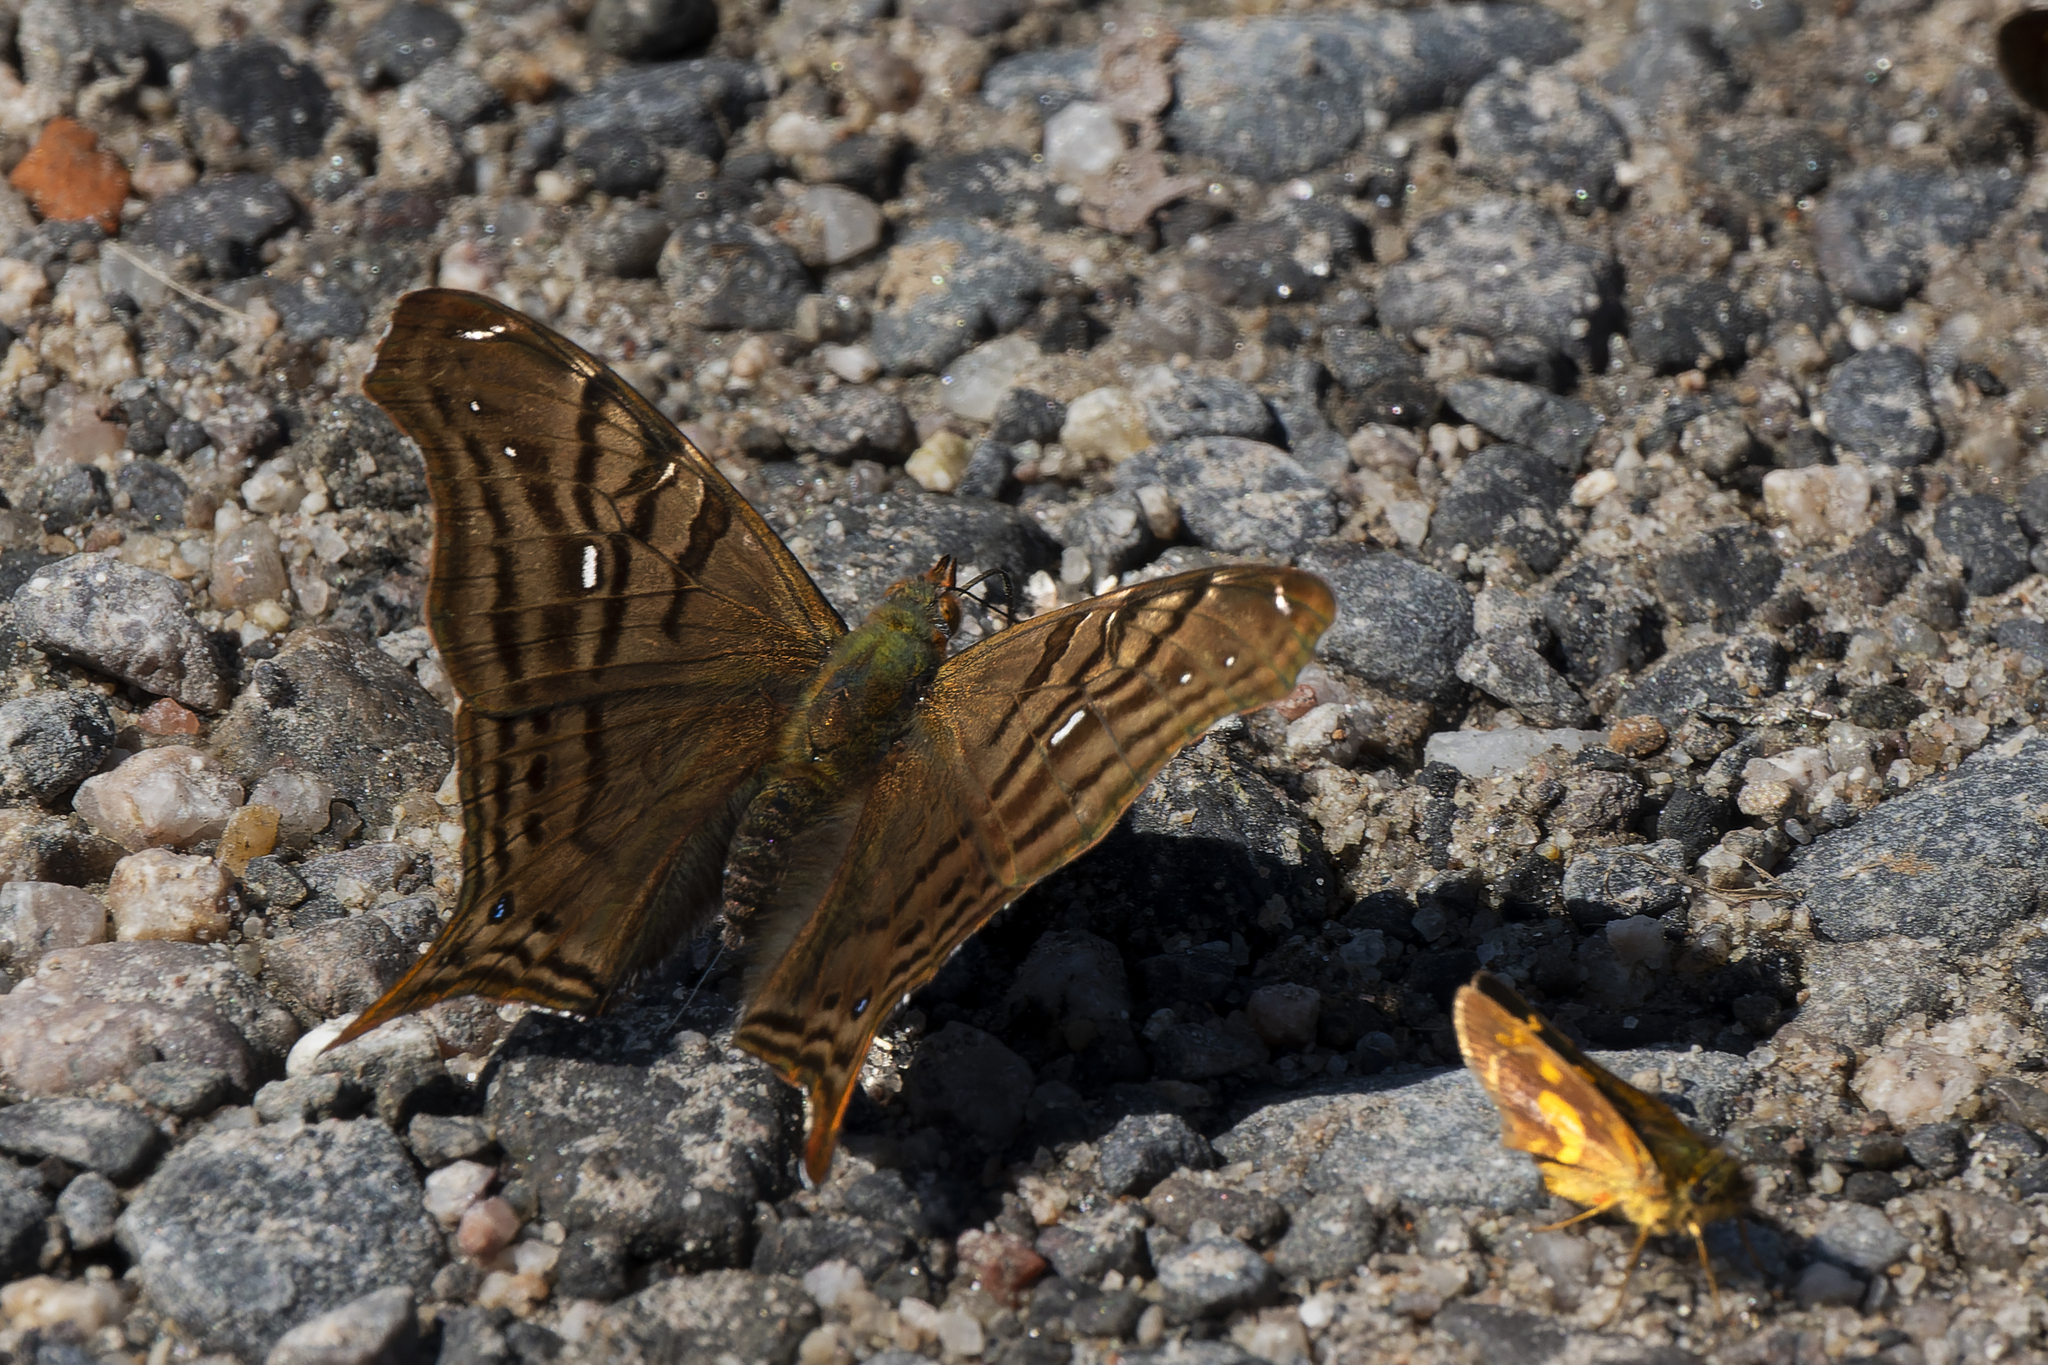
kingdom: Animalia
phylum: Arthropoda
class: Insecta
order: Lepidoptera
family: Nymphalidae
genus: Hypanartia
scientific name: Hypanartia dione
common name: Banded mapwing
